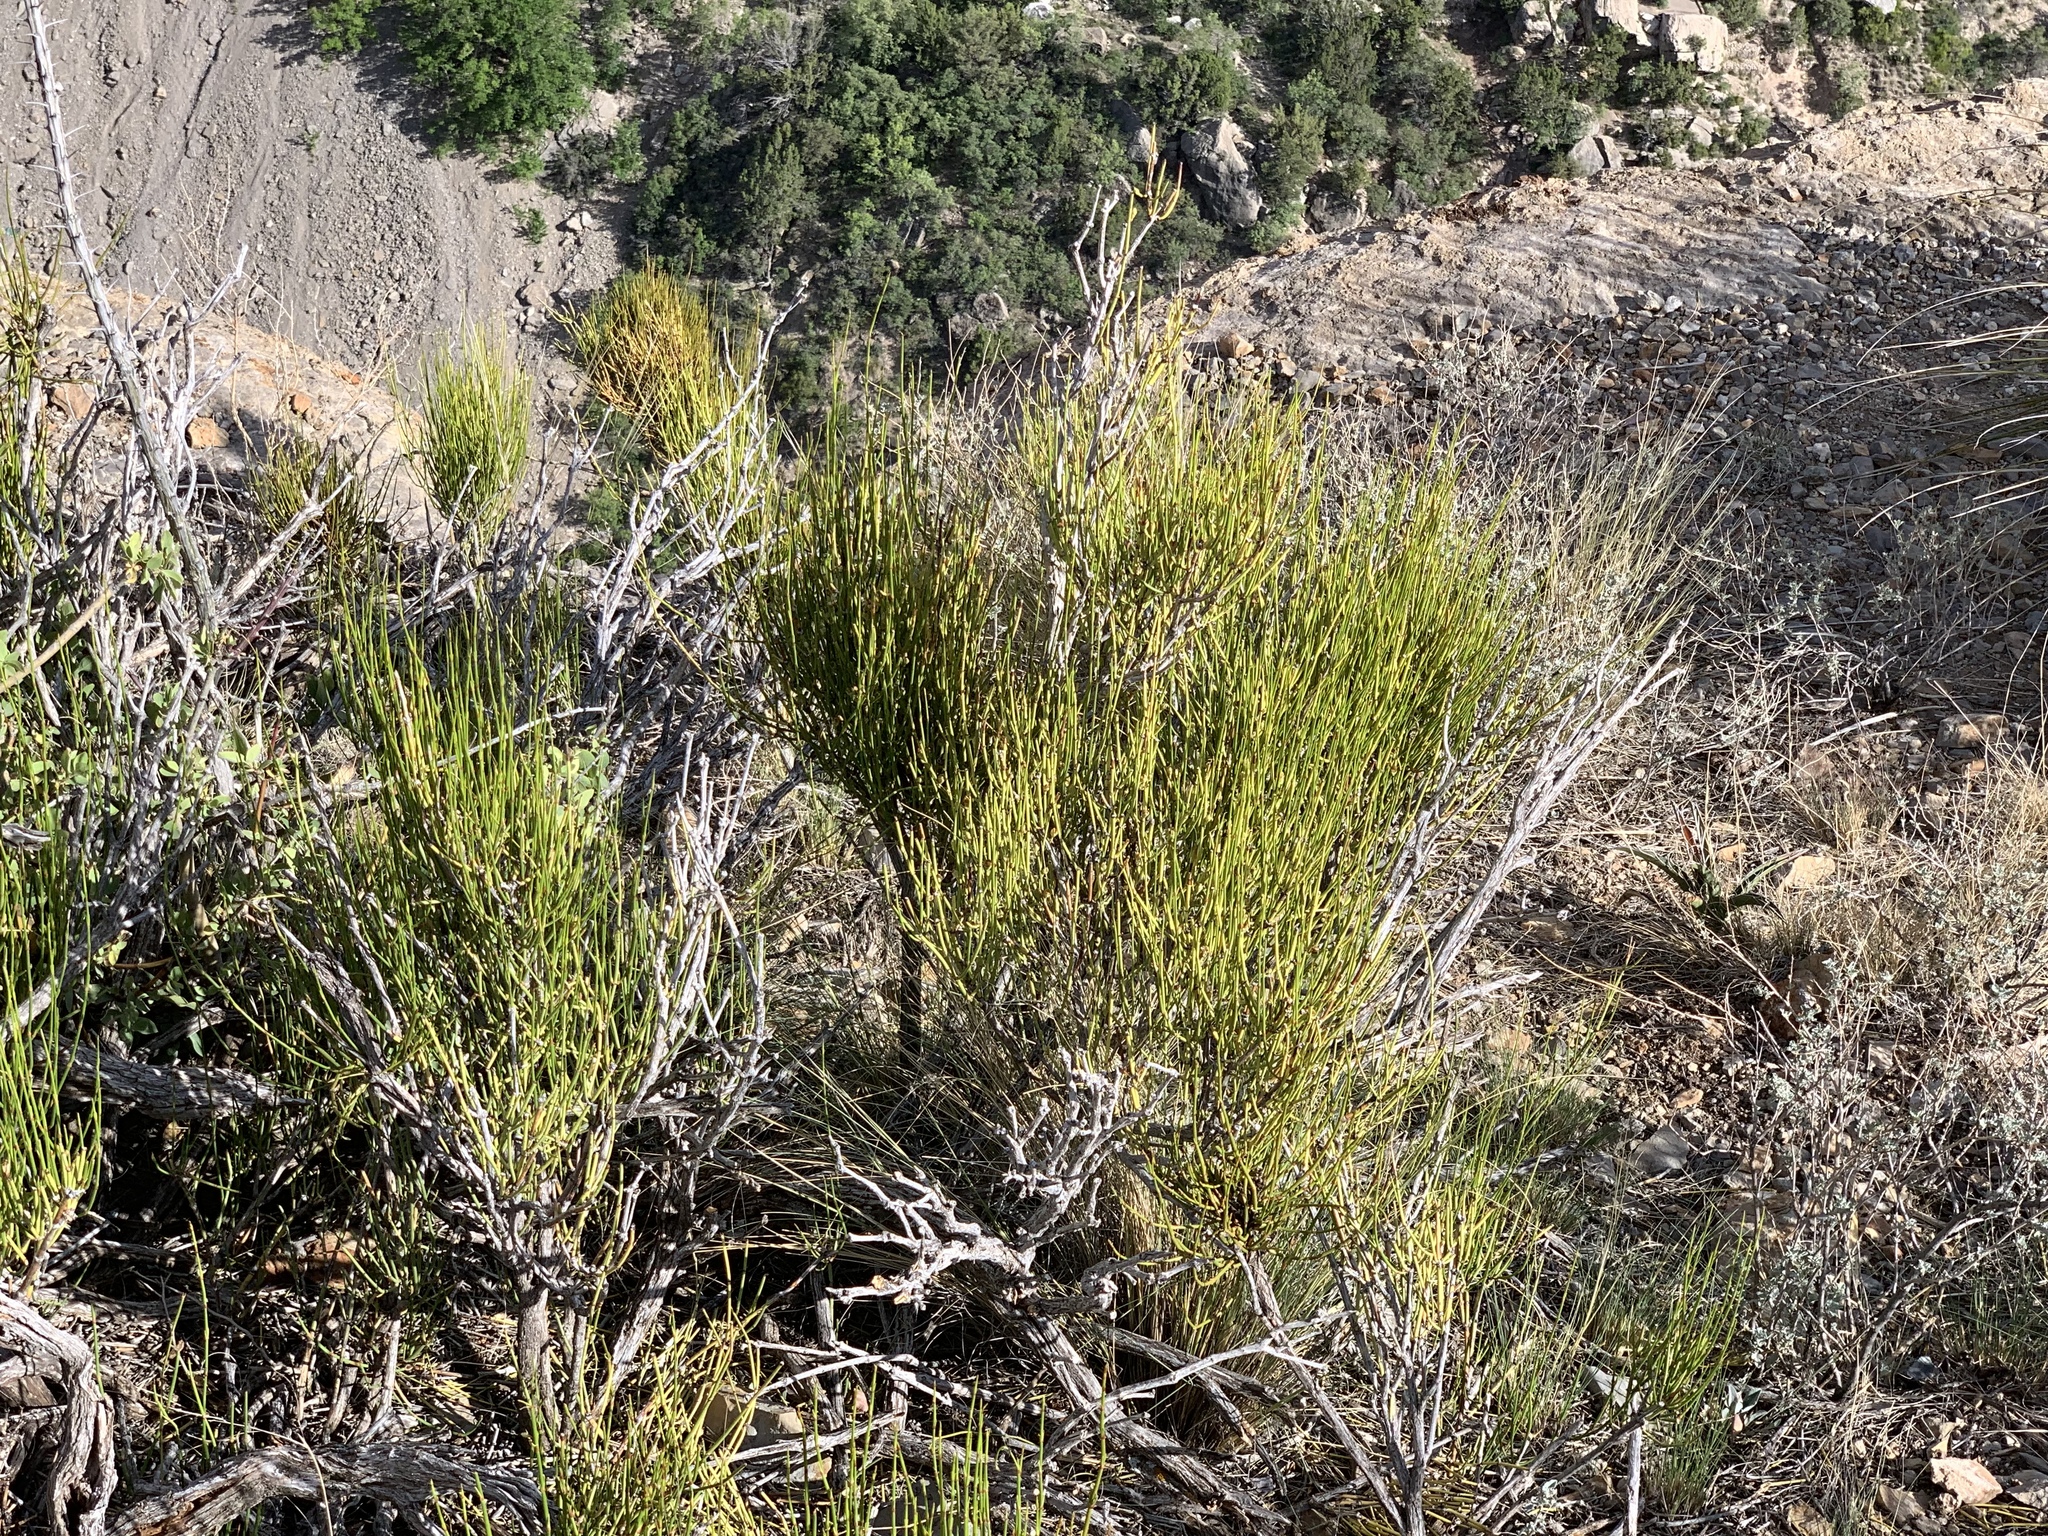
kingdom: Plantae
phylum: Tracheophyta
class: Gnetopsida
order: Ephedrales
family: Ephedraceae
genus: Ephedra
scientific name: Ephedra viridis
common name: Green ephedra
